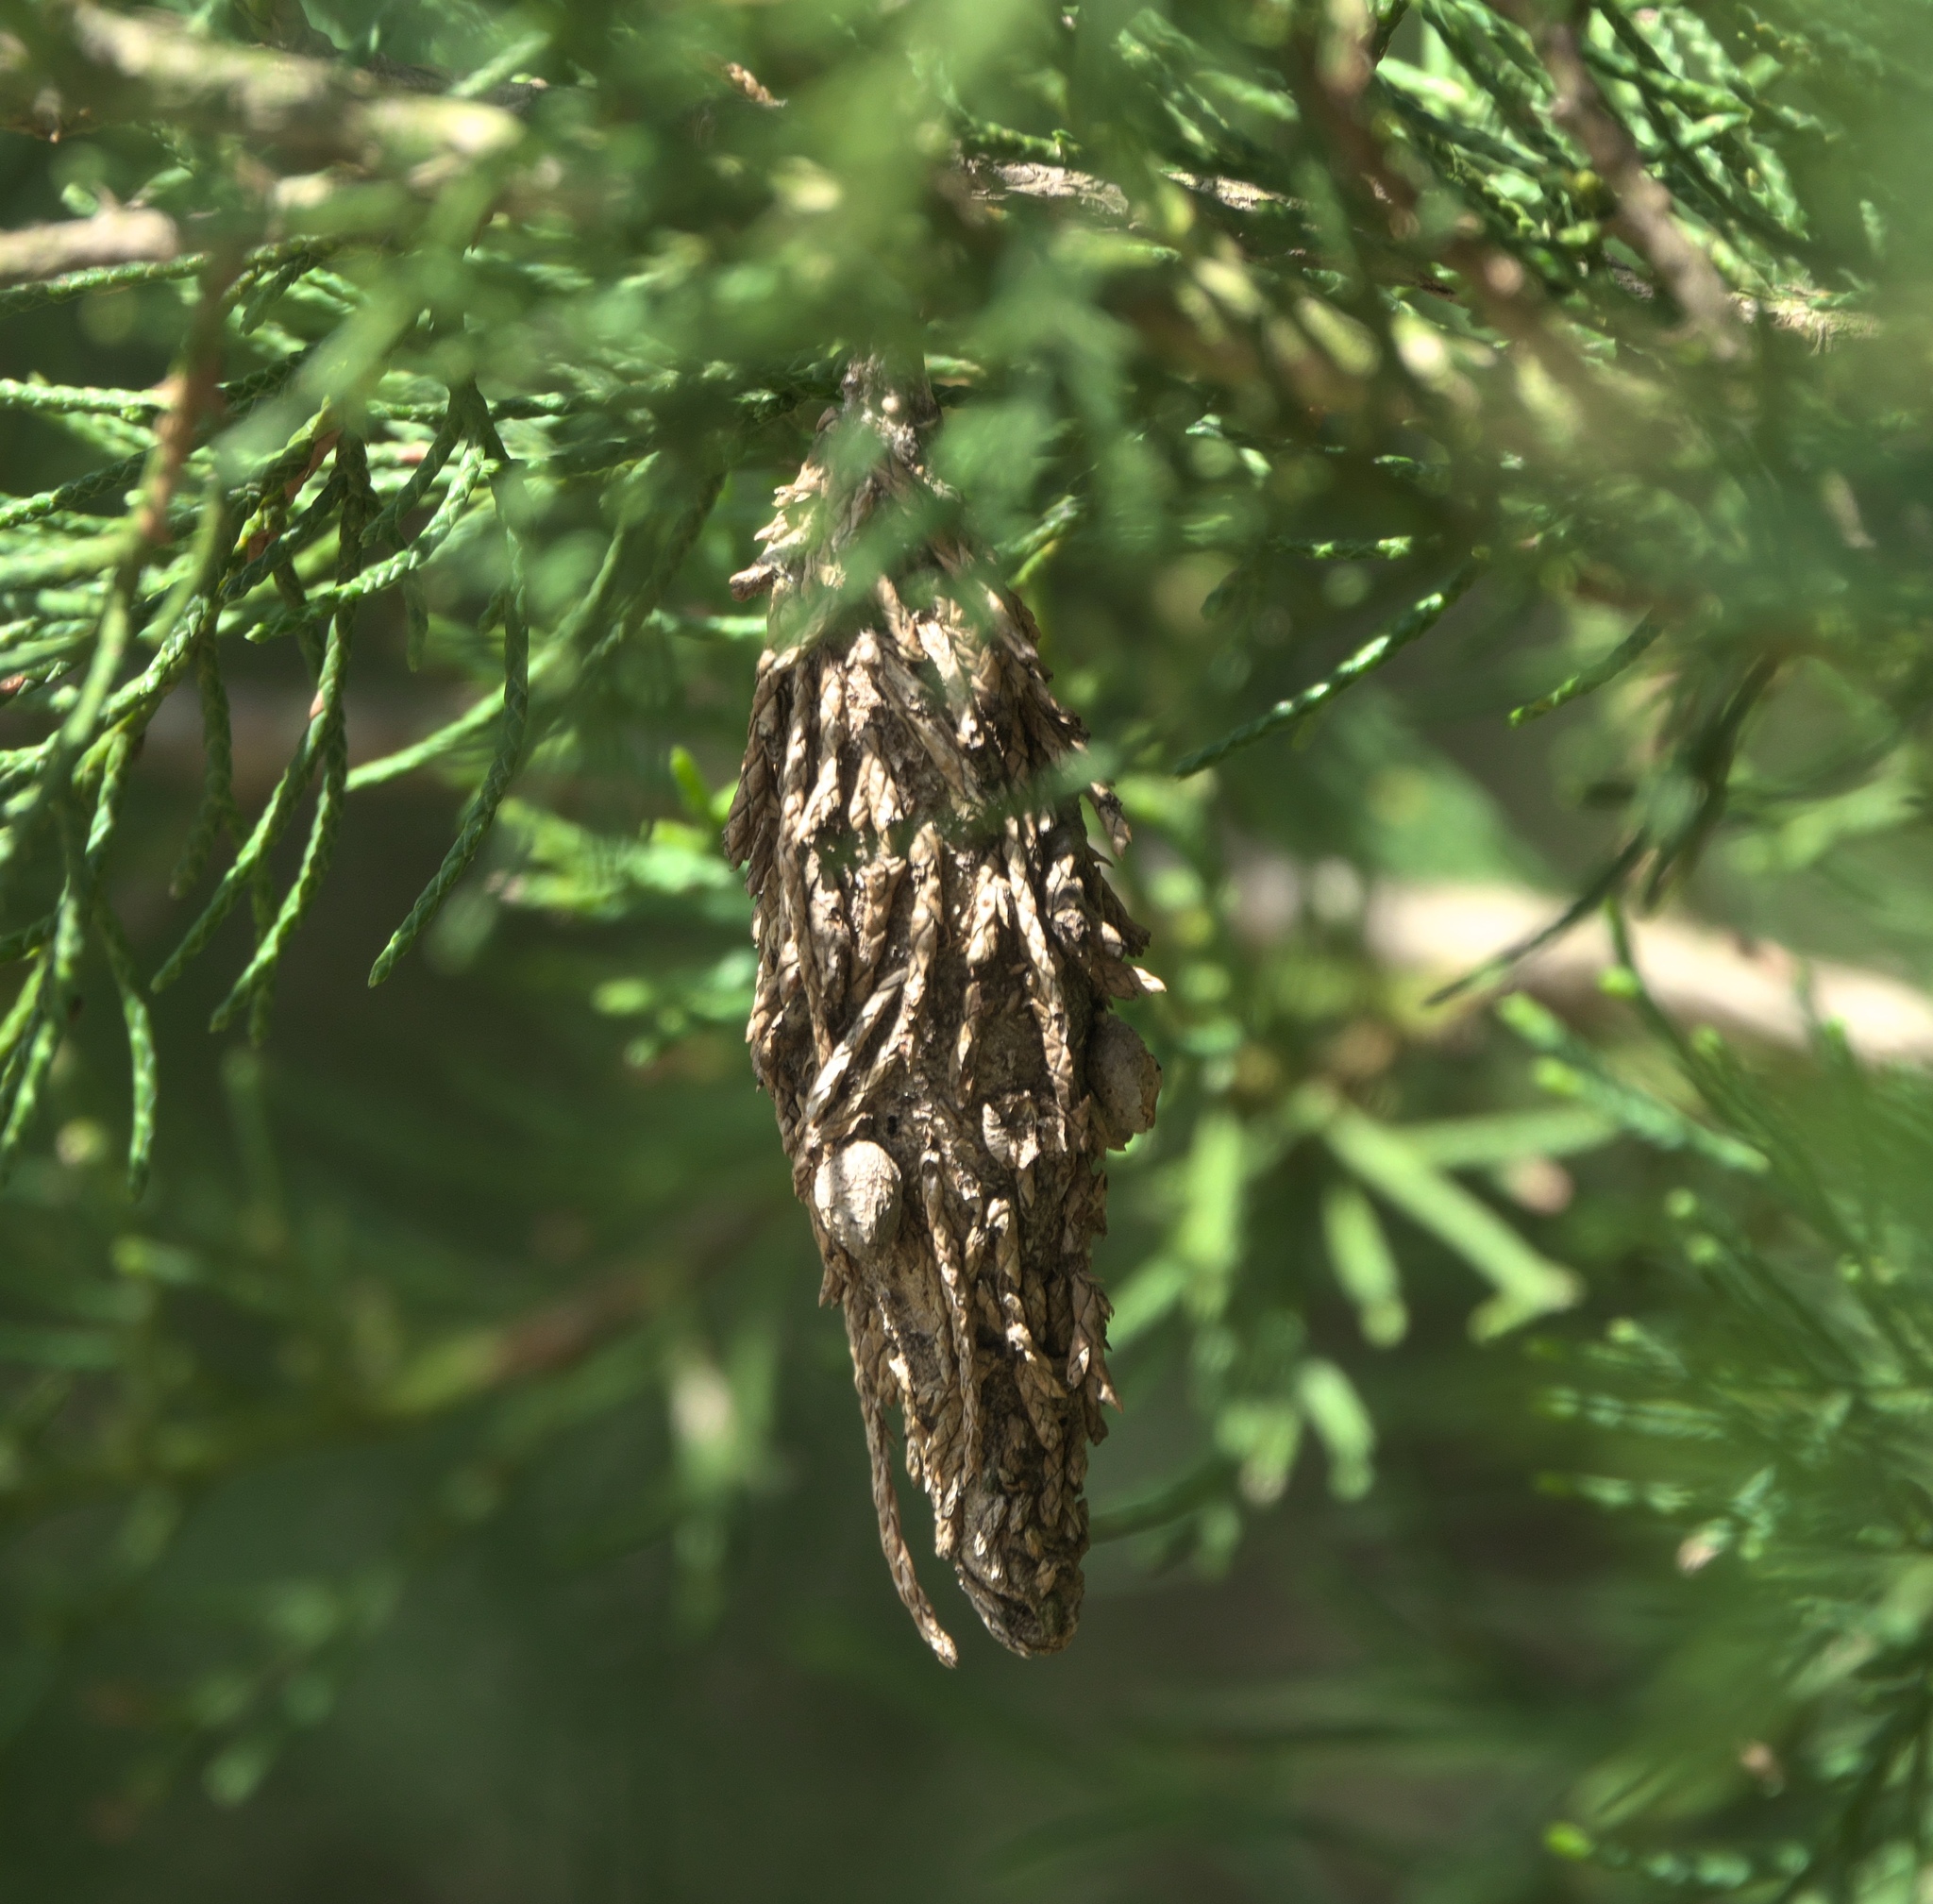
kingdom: Animalia
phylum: Arthropoda
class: Insecta
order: Lepidoptera
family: Psychidae
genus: Thyridopteryx
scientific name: Thyridopteryx ephemeraeformis
